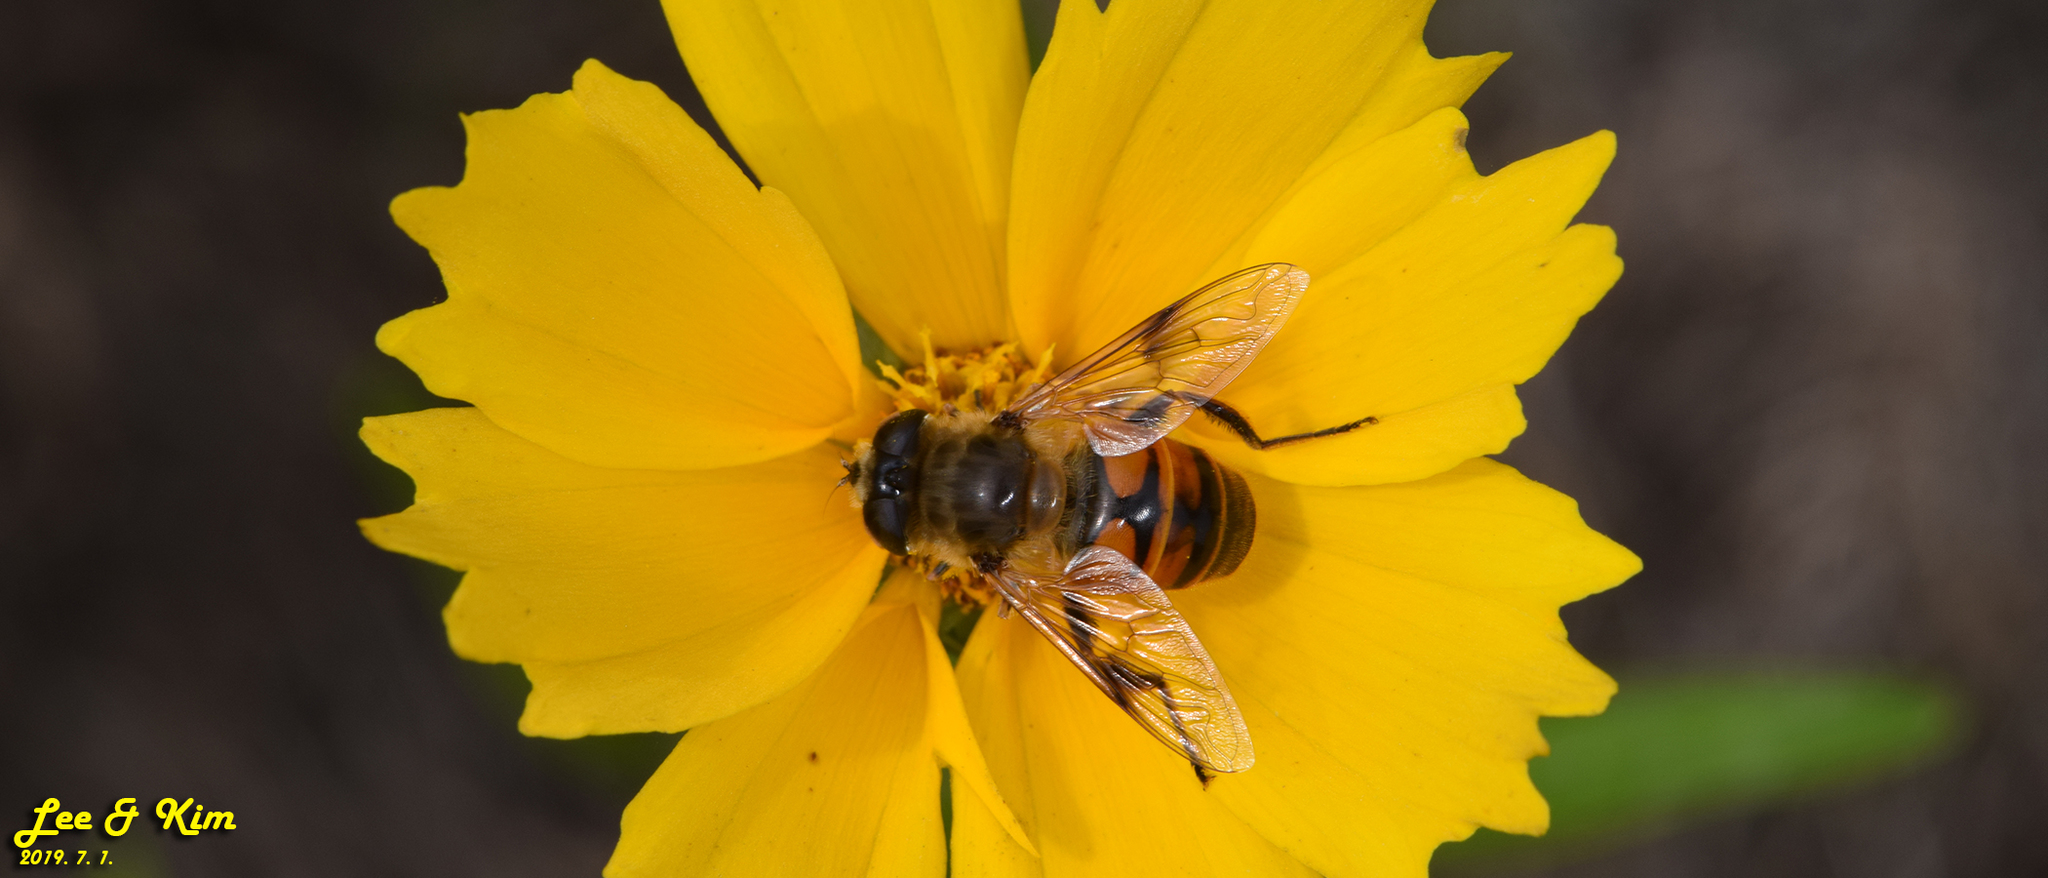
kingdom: Animalia
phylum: Arthropoda
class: Insecta
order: Diptera
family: Syrphidae
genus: Eristalis
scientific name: Eristalis tenax
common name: Drone fly
